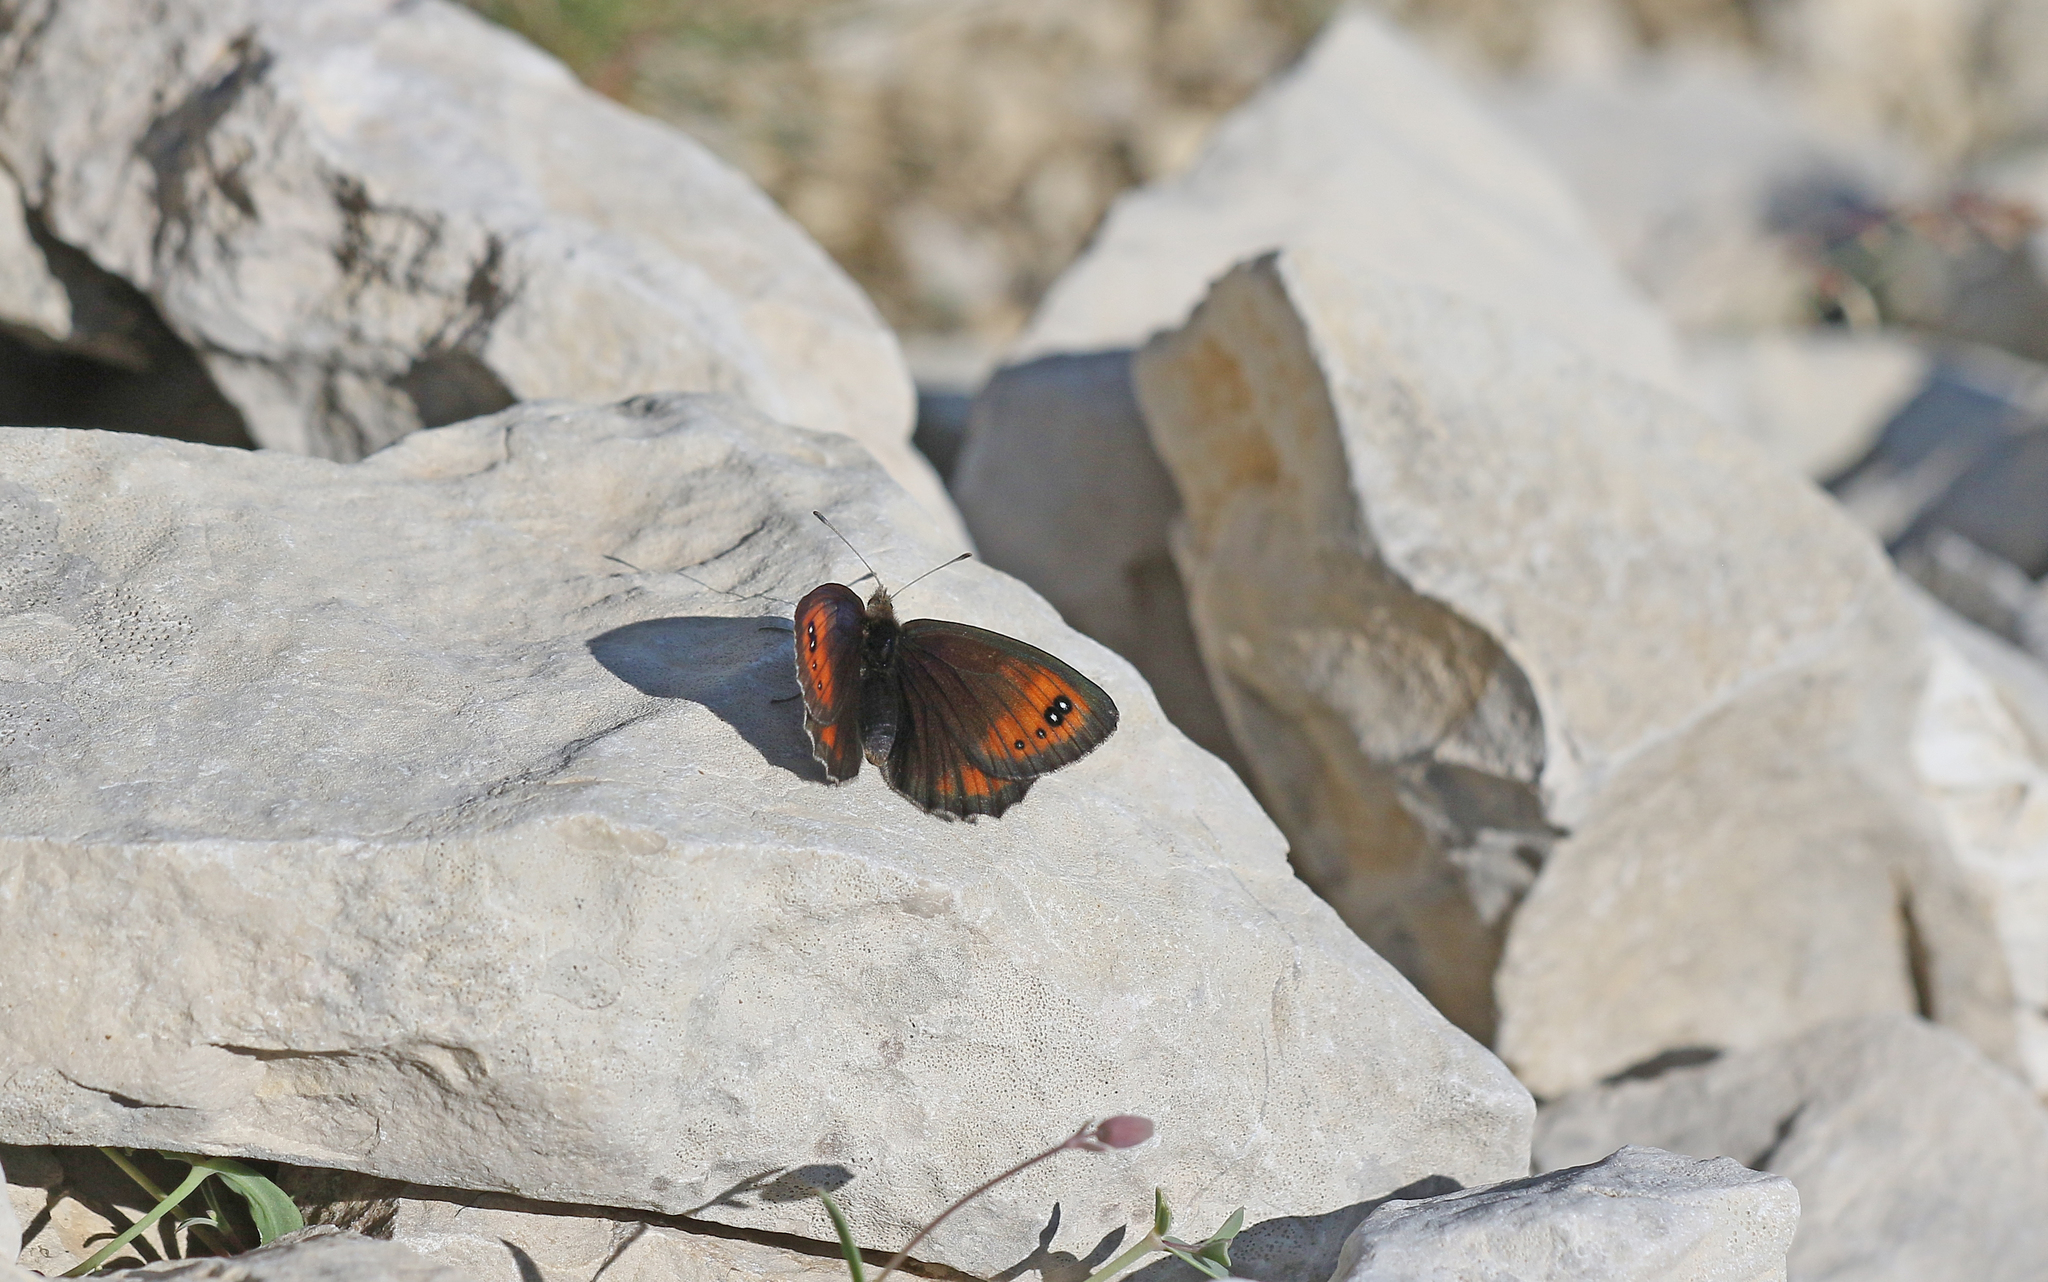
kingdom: Animalia
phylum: Arthropoda
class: Insecta
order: Lepidoptera
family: Nymphalidae
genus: Erebia
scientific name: Erebia scipio
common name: Larche ringlet
